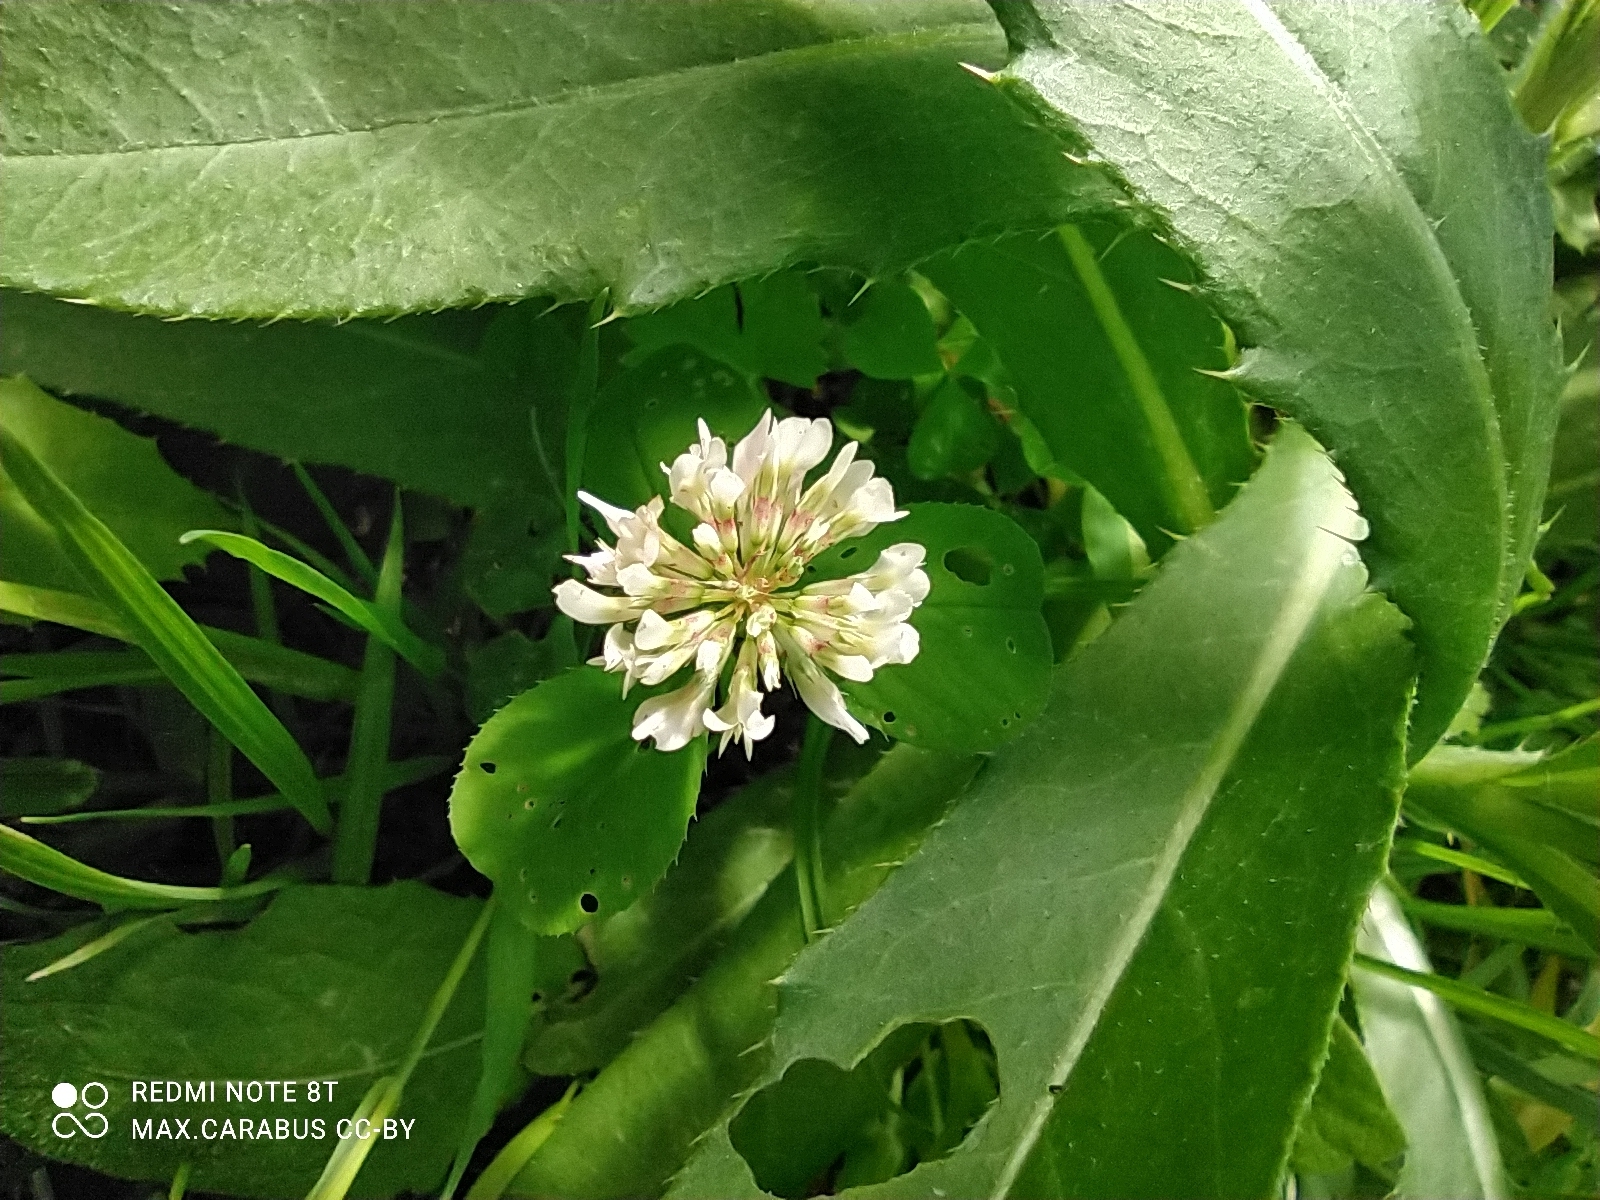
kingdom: Plantae
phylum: Tracheophyta
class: Magnoliopsida
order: Fabales
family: Fabaceae
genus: Trifolium
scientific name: Trifolium repens
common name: White clover
